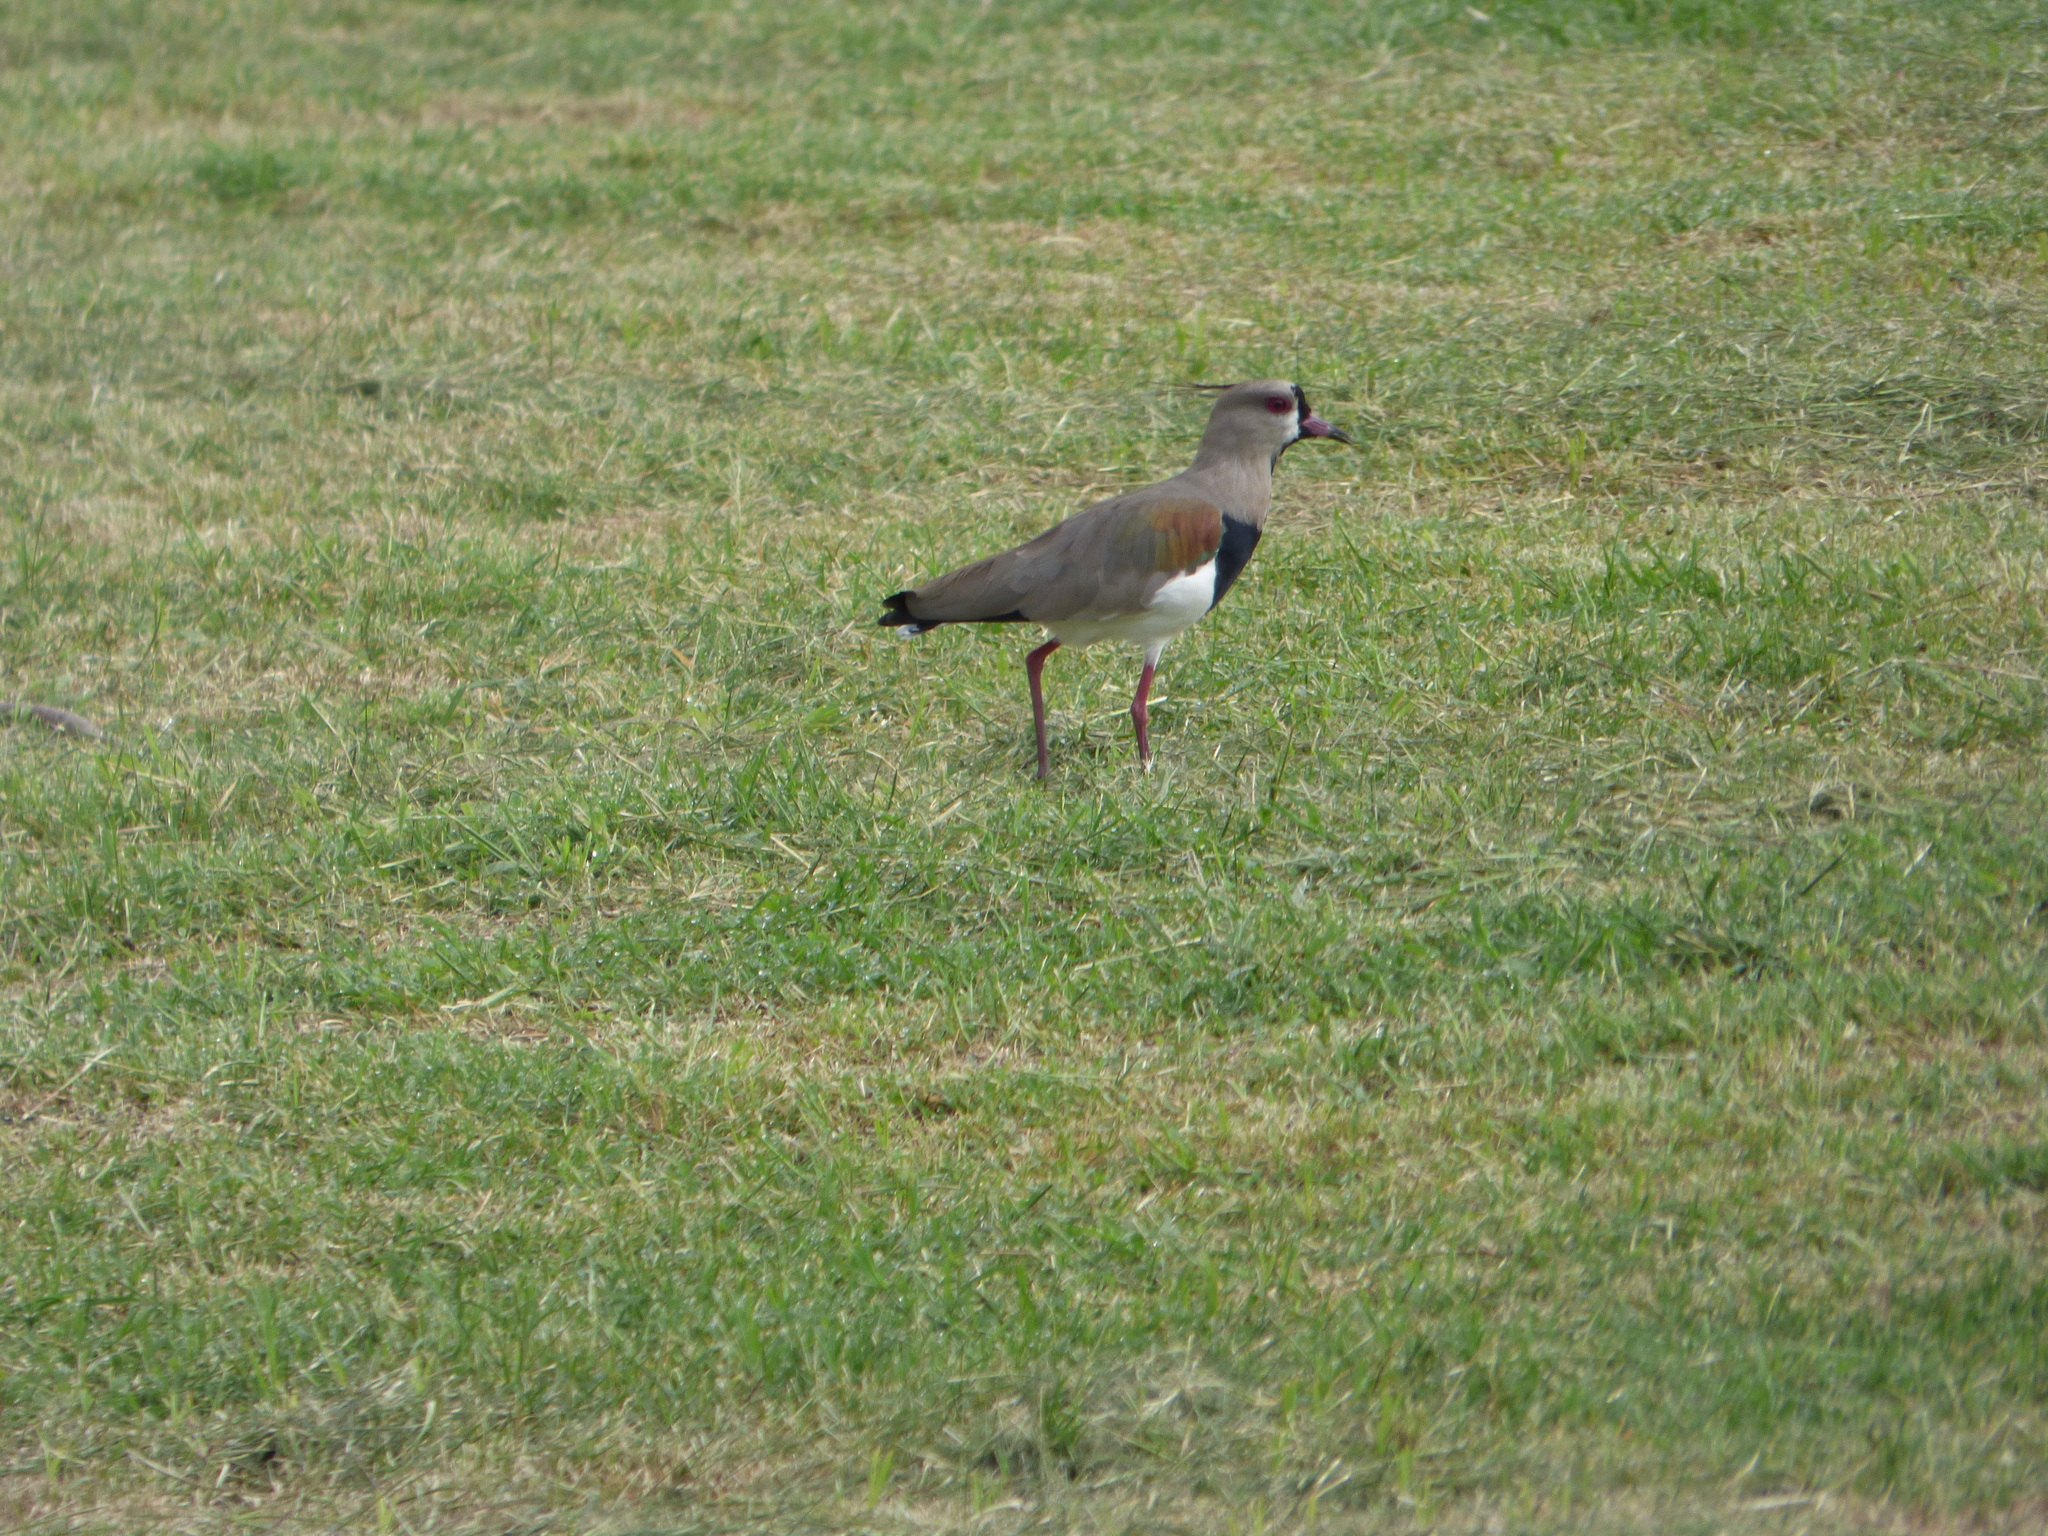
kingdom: Animalia
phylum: Chordata
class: Aves
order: Charadriiformes
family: Charadriidae
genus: Vanellus
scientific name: Vanellus chilensis
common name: Southern lapwing
